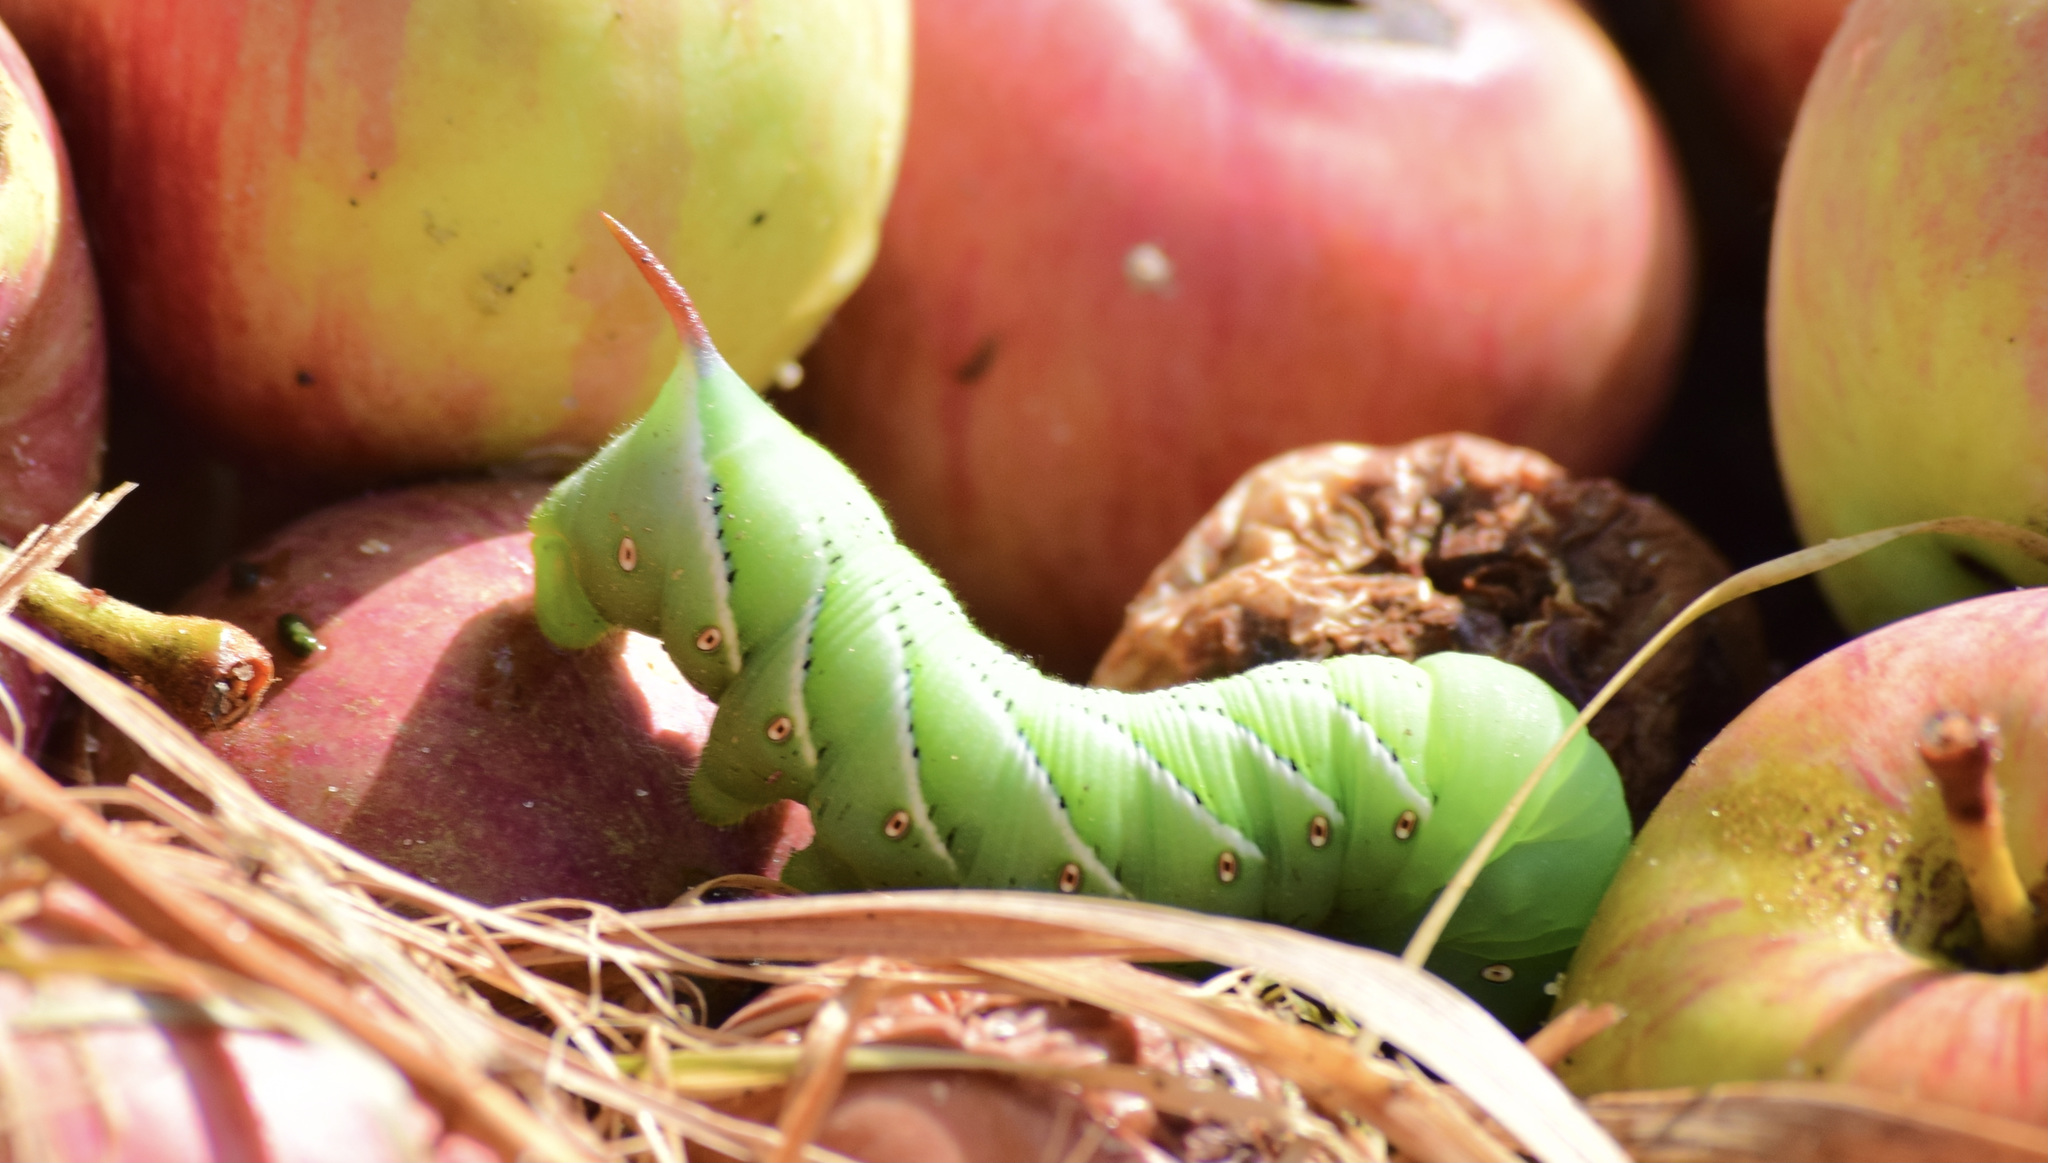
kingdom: Animalia
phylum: Arthropoda
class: Insecta
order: Lepidoptera
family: Sphingidae
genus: Manduca
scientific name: Manduca sexta
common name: Carolina sphinx
